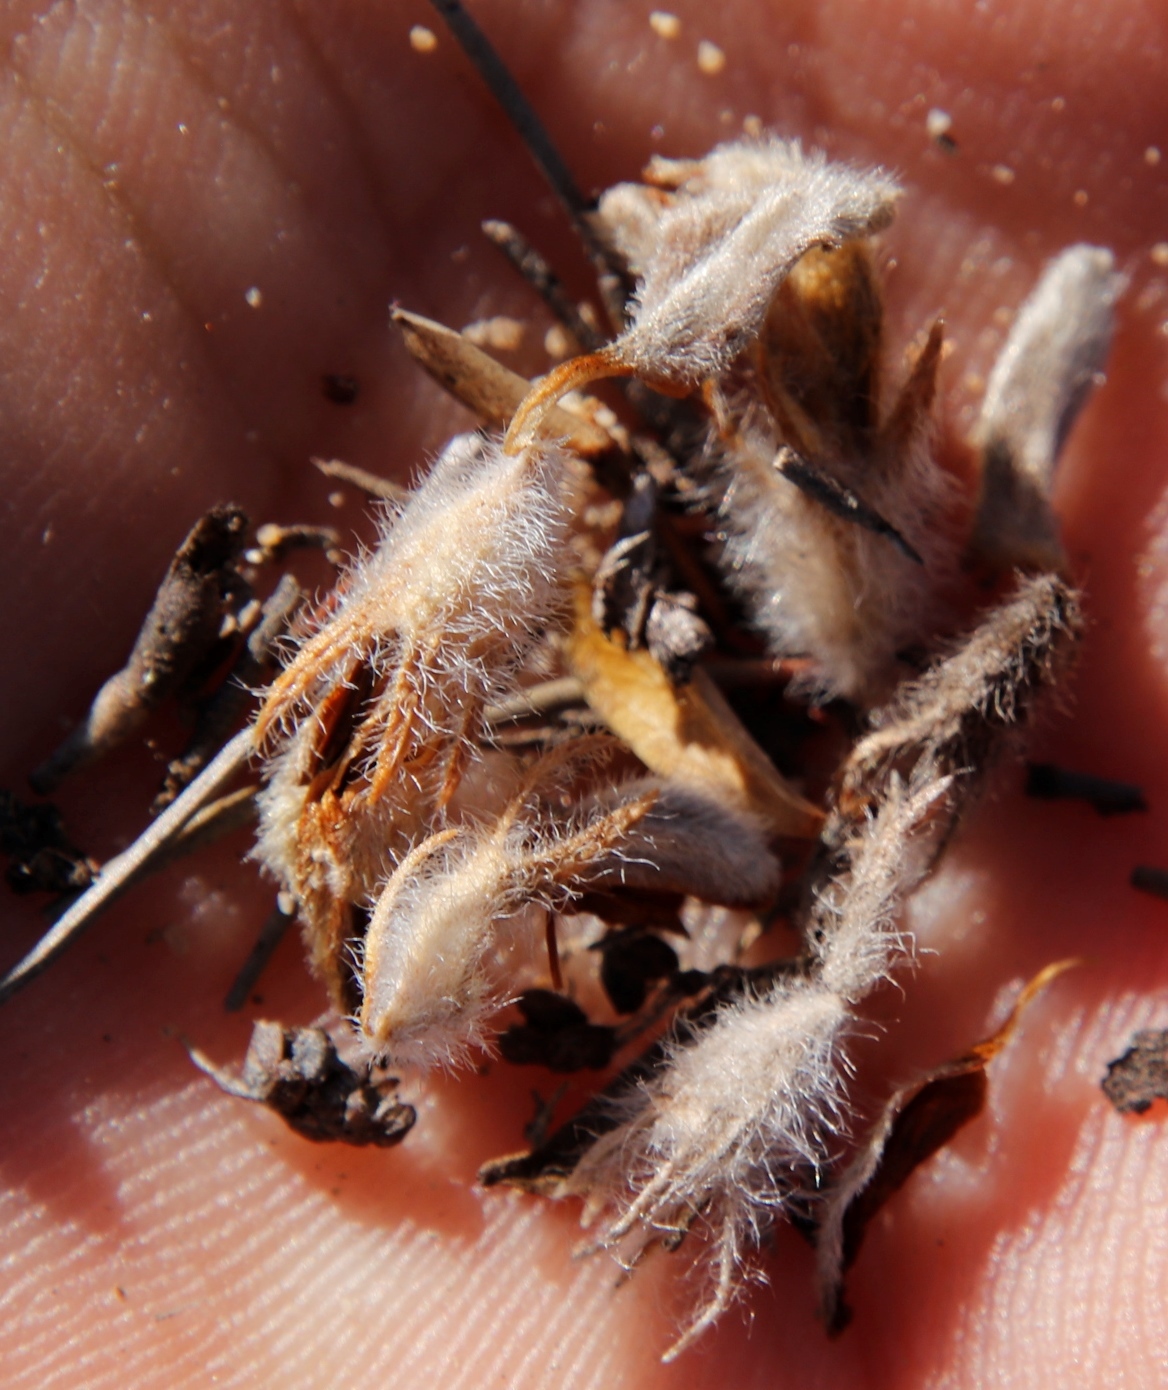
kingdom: Plantae
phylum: Tracheophyta
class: Magnoliopsida
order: Fabales
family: Fabaceae
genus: Aspalathus
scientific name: Aspalathus aspalathoides
